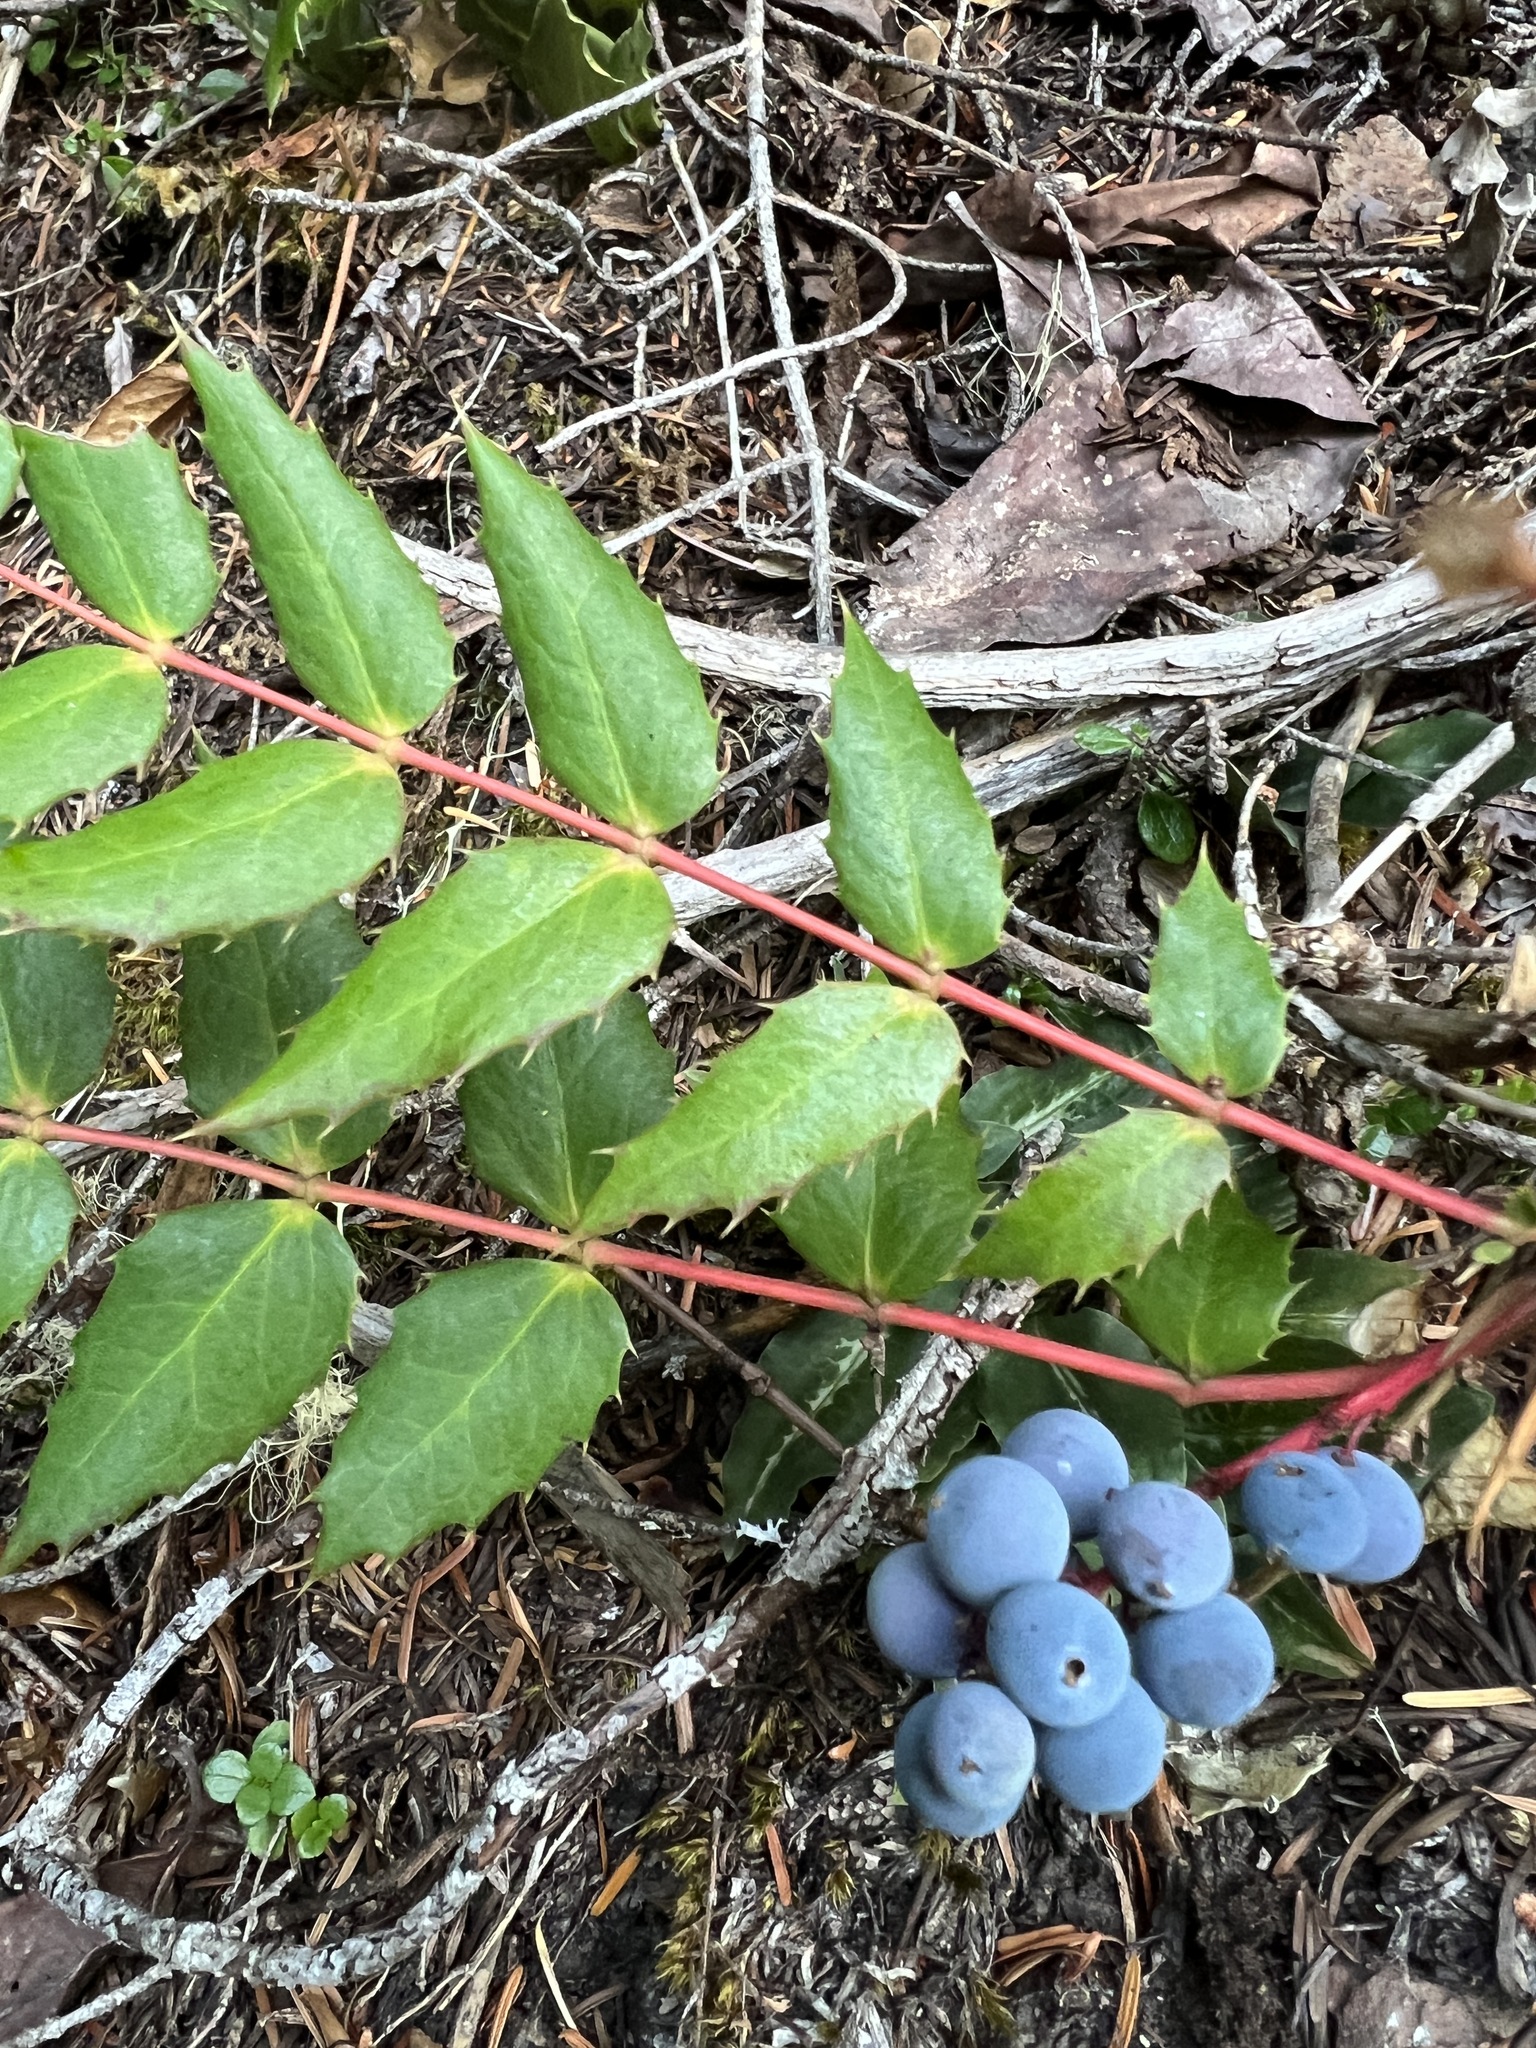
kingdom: Plantae
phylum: Tracheophyta
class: Magnoliopsida
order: Ranunculales
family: Berberidaceae
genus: Mahonia
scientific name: Mahonia nervosa
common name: Cascade oregon-grape
